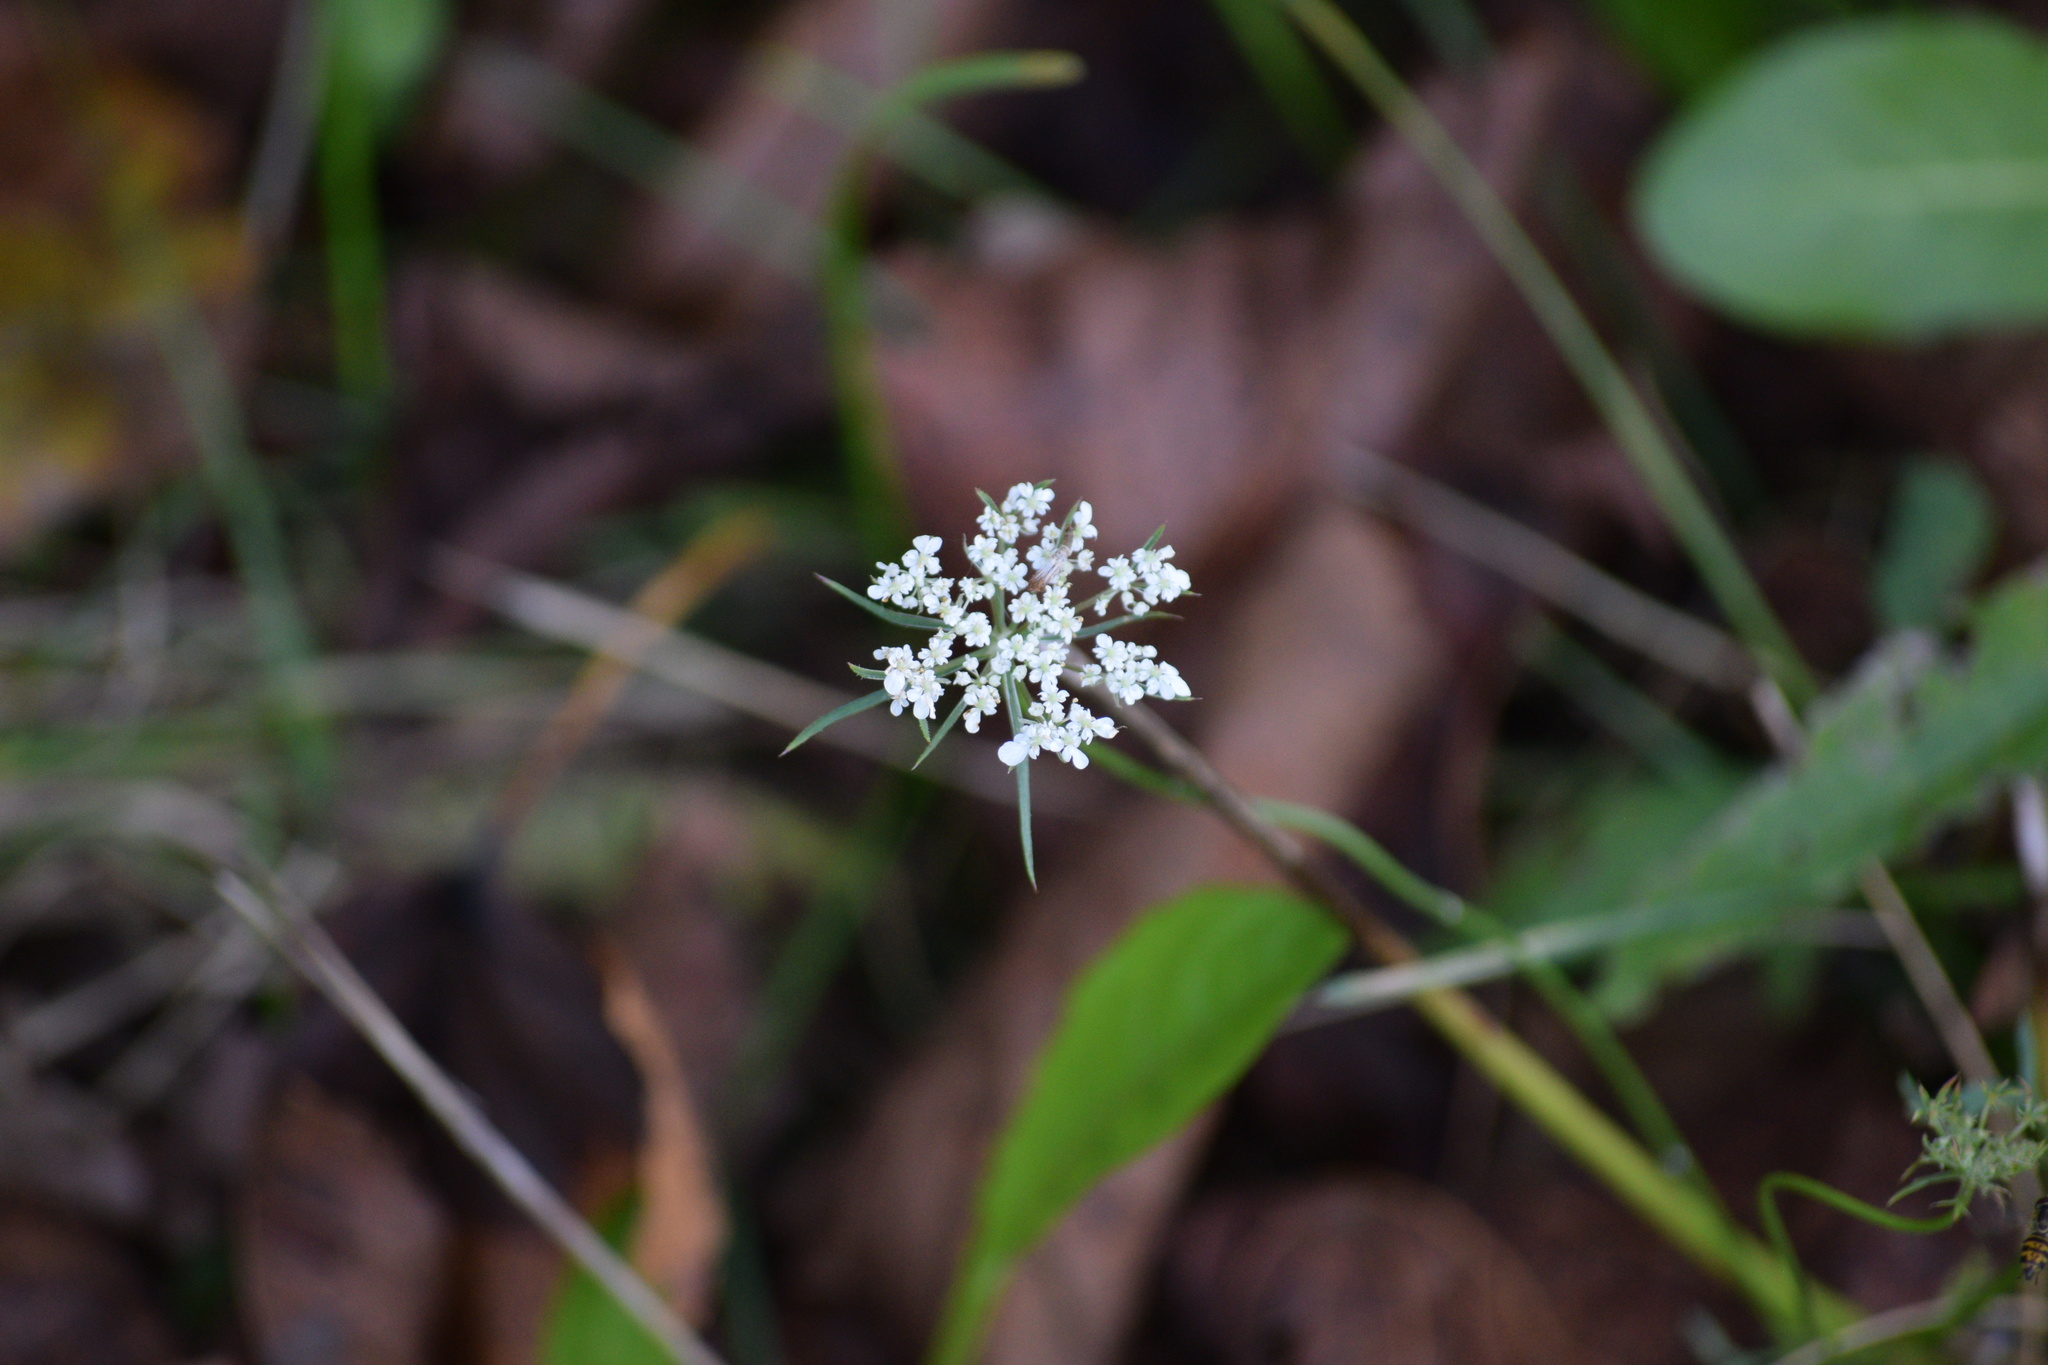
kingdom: Plantae
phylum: Tracheophyta
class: Magnoliopsida
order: Apiales
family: Apiaceae
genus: Daucus
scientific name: Daucus carota
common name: Wild carrot
